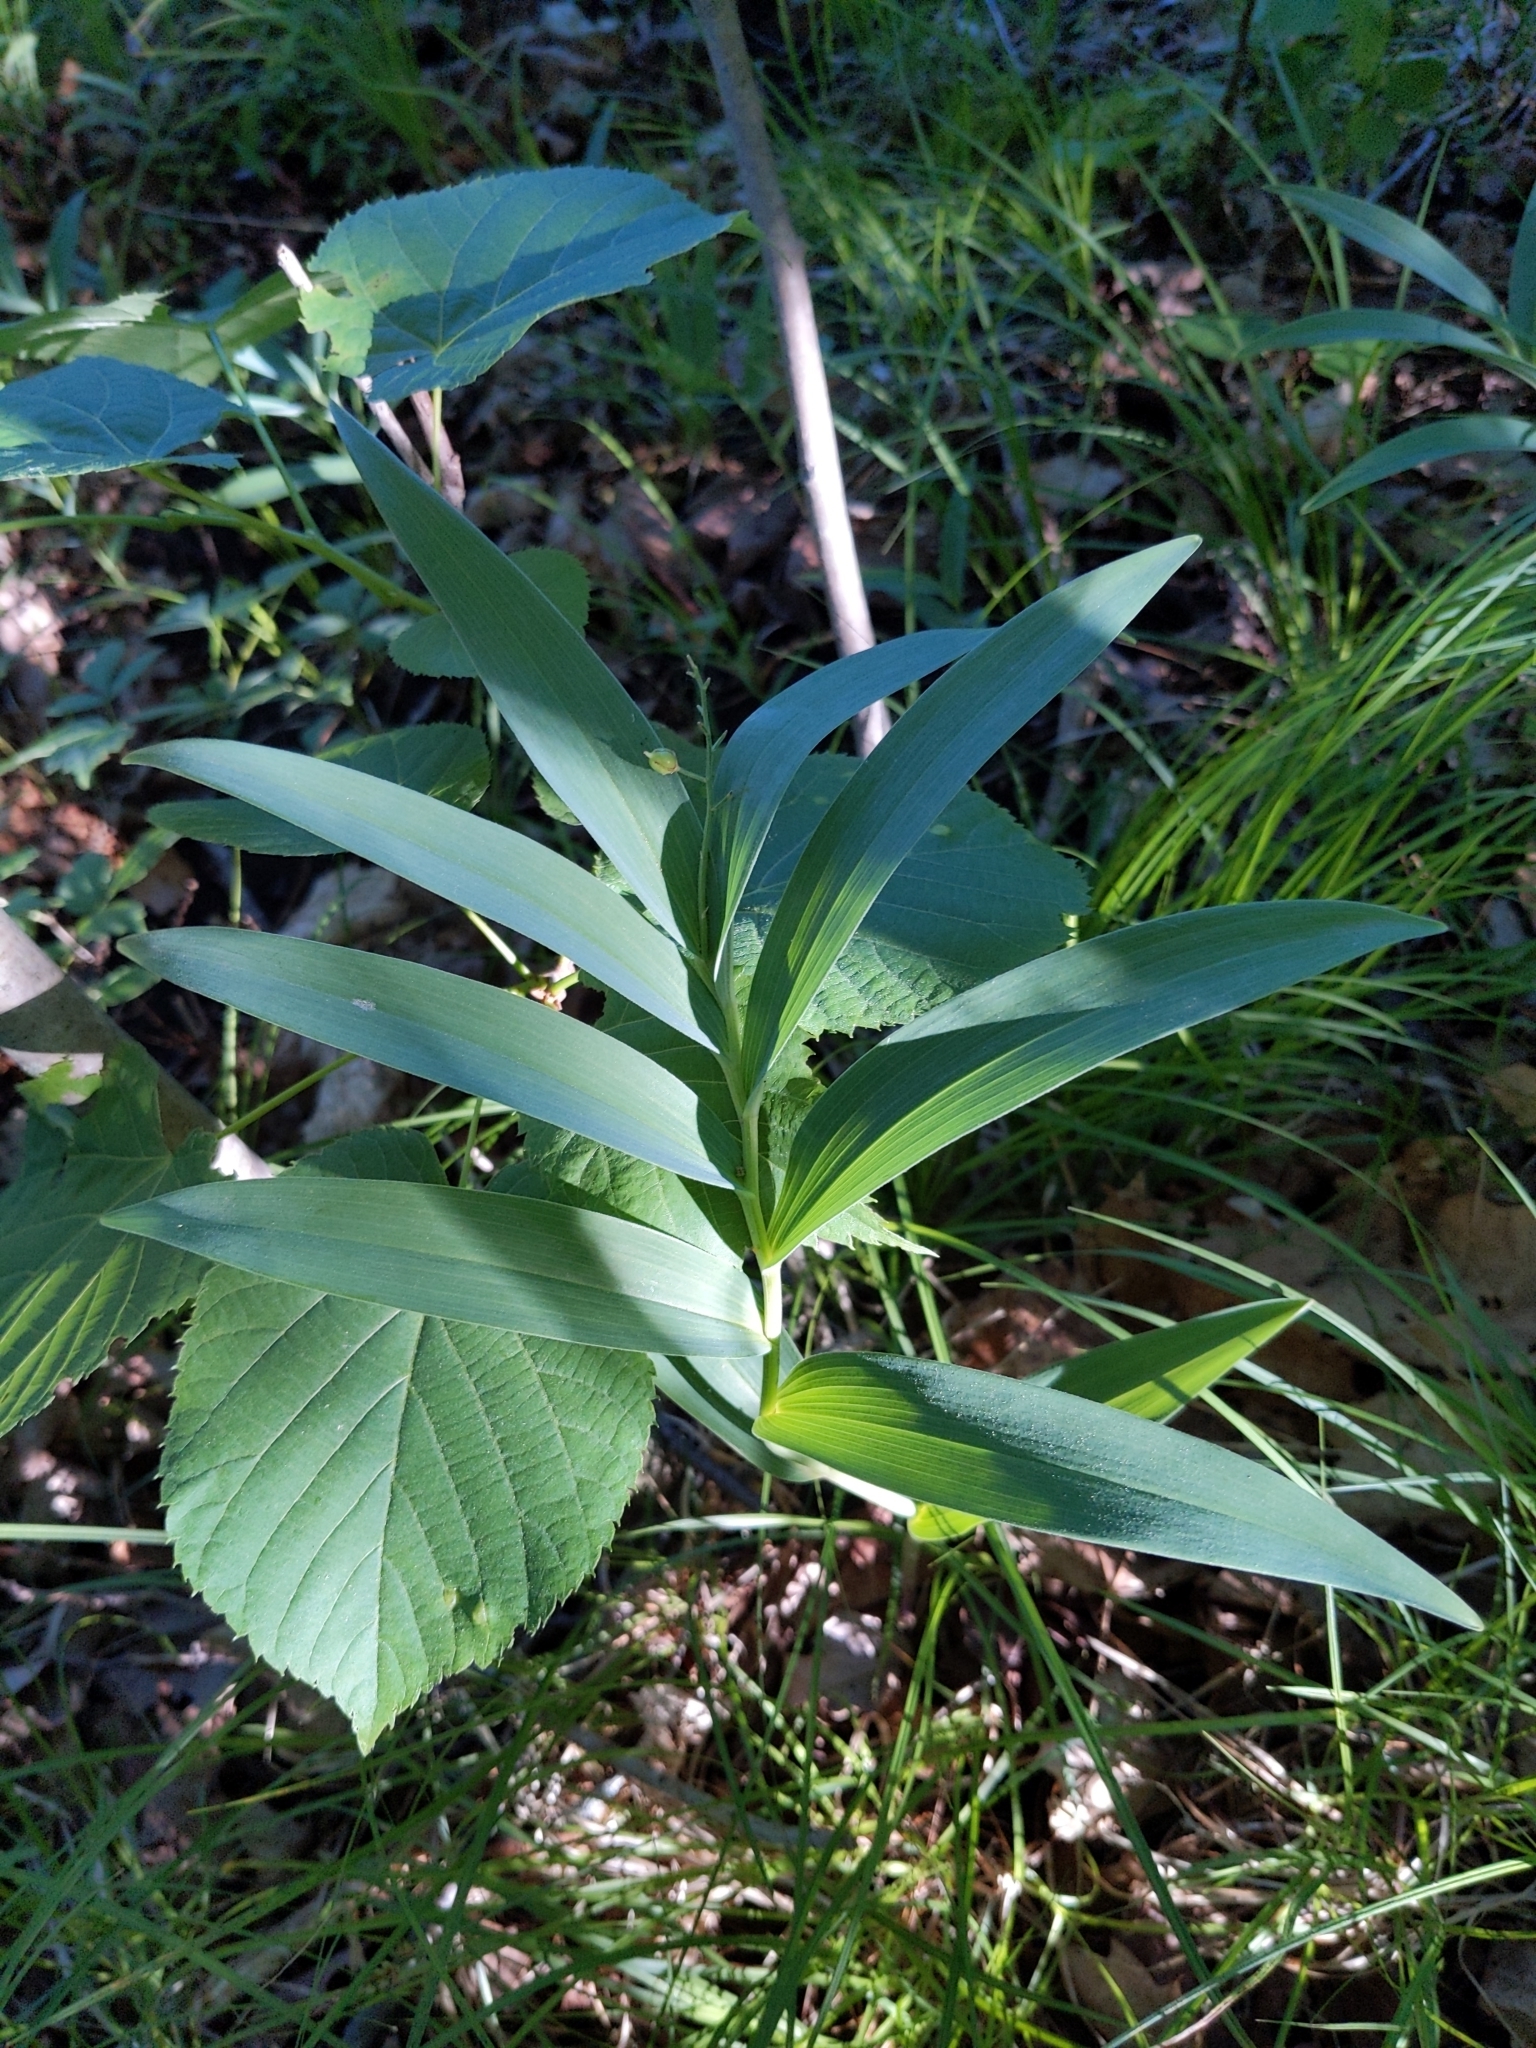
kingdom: Plantae
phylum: Tracheophyta
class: Liliopsida
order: Asparagales
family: Asparagaceae
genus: Maianthemum
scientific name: Maianthemum stellatum
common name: Little false solomon's seal
